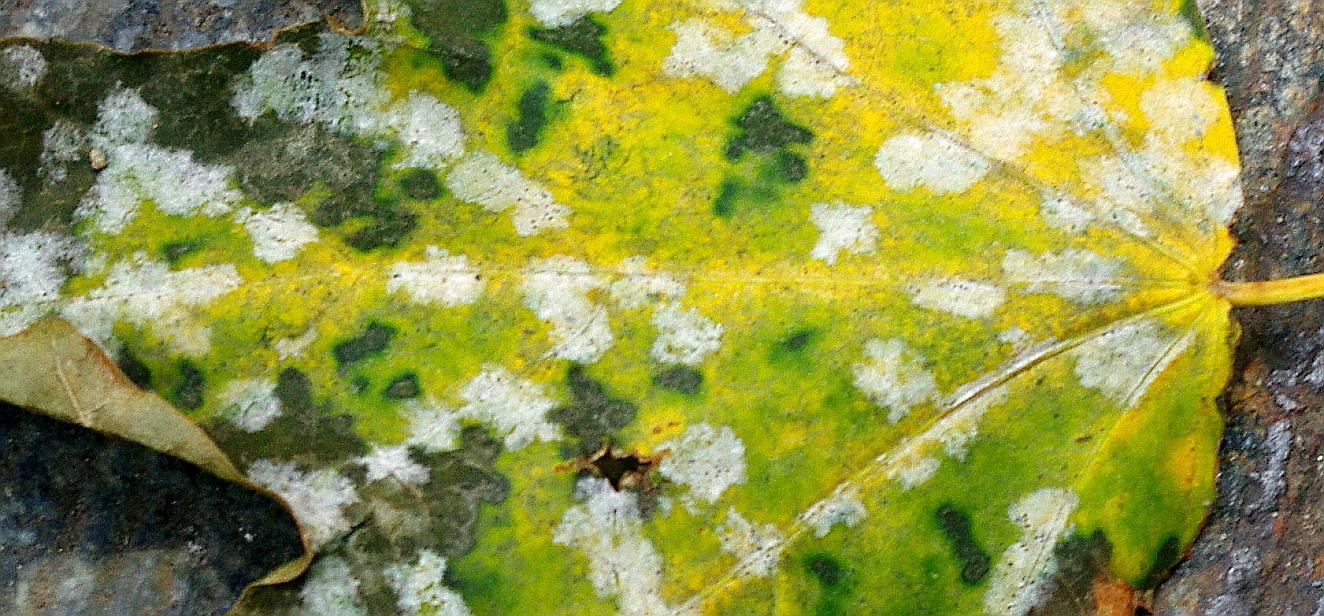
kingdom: Fungi
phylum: Ascomycota
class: Leotiomycetes
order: Helotiales
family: Erysiphaceae
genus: Sawadaea
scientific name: Sawadaea tulasnei
